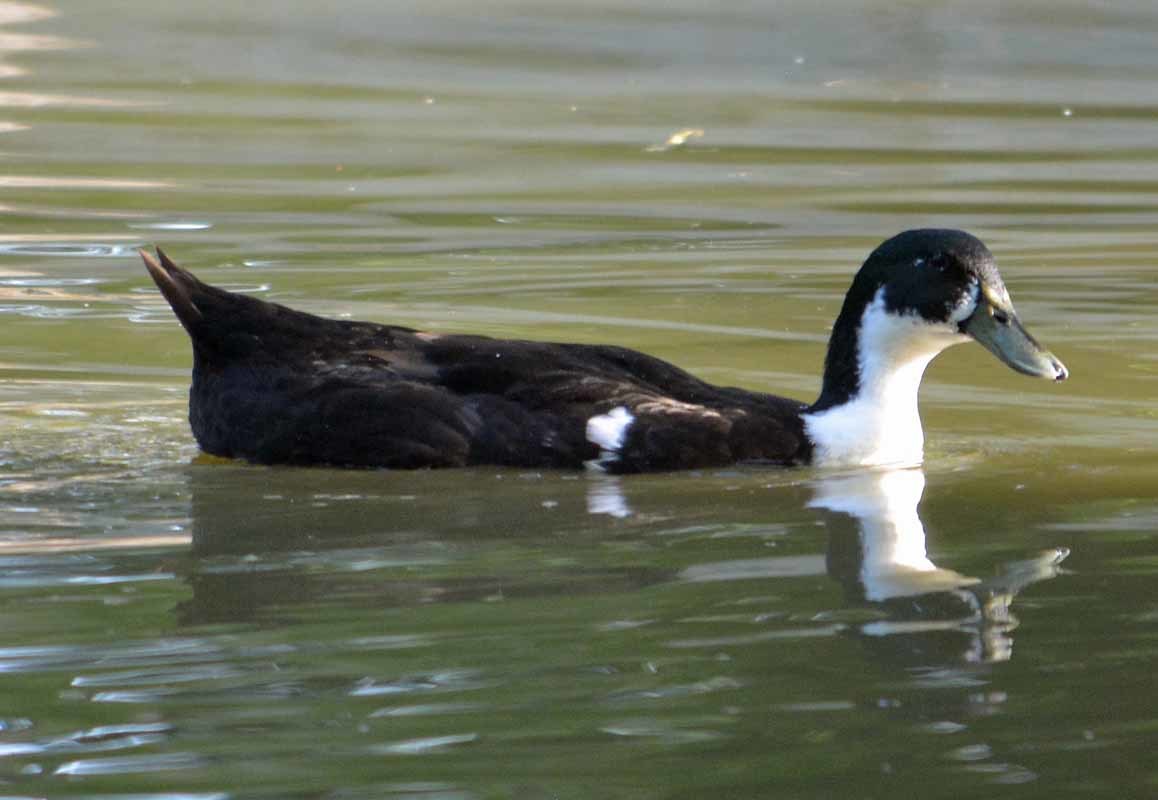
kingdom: Animalia
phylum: Chordata
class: Aves
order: Anseriformes
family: Anatidae
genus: Anas
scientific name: Anas platyrhynchos
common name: Mallard
